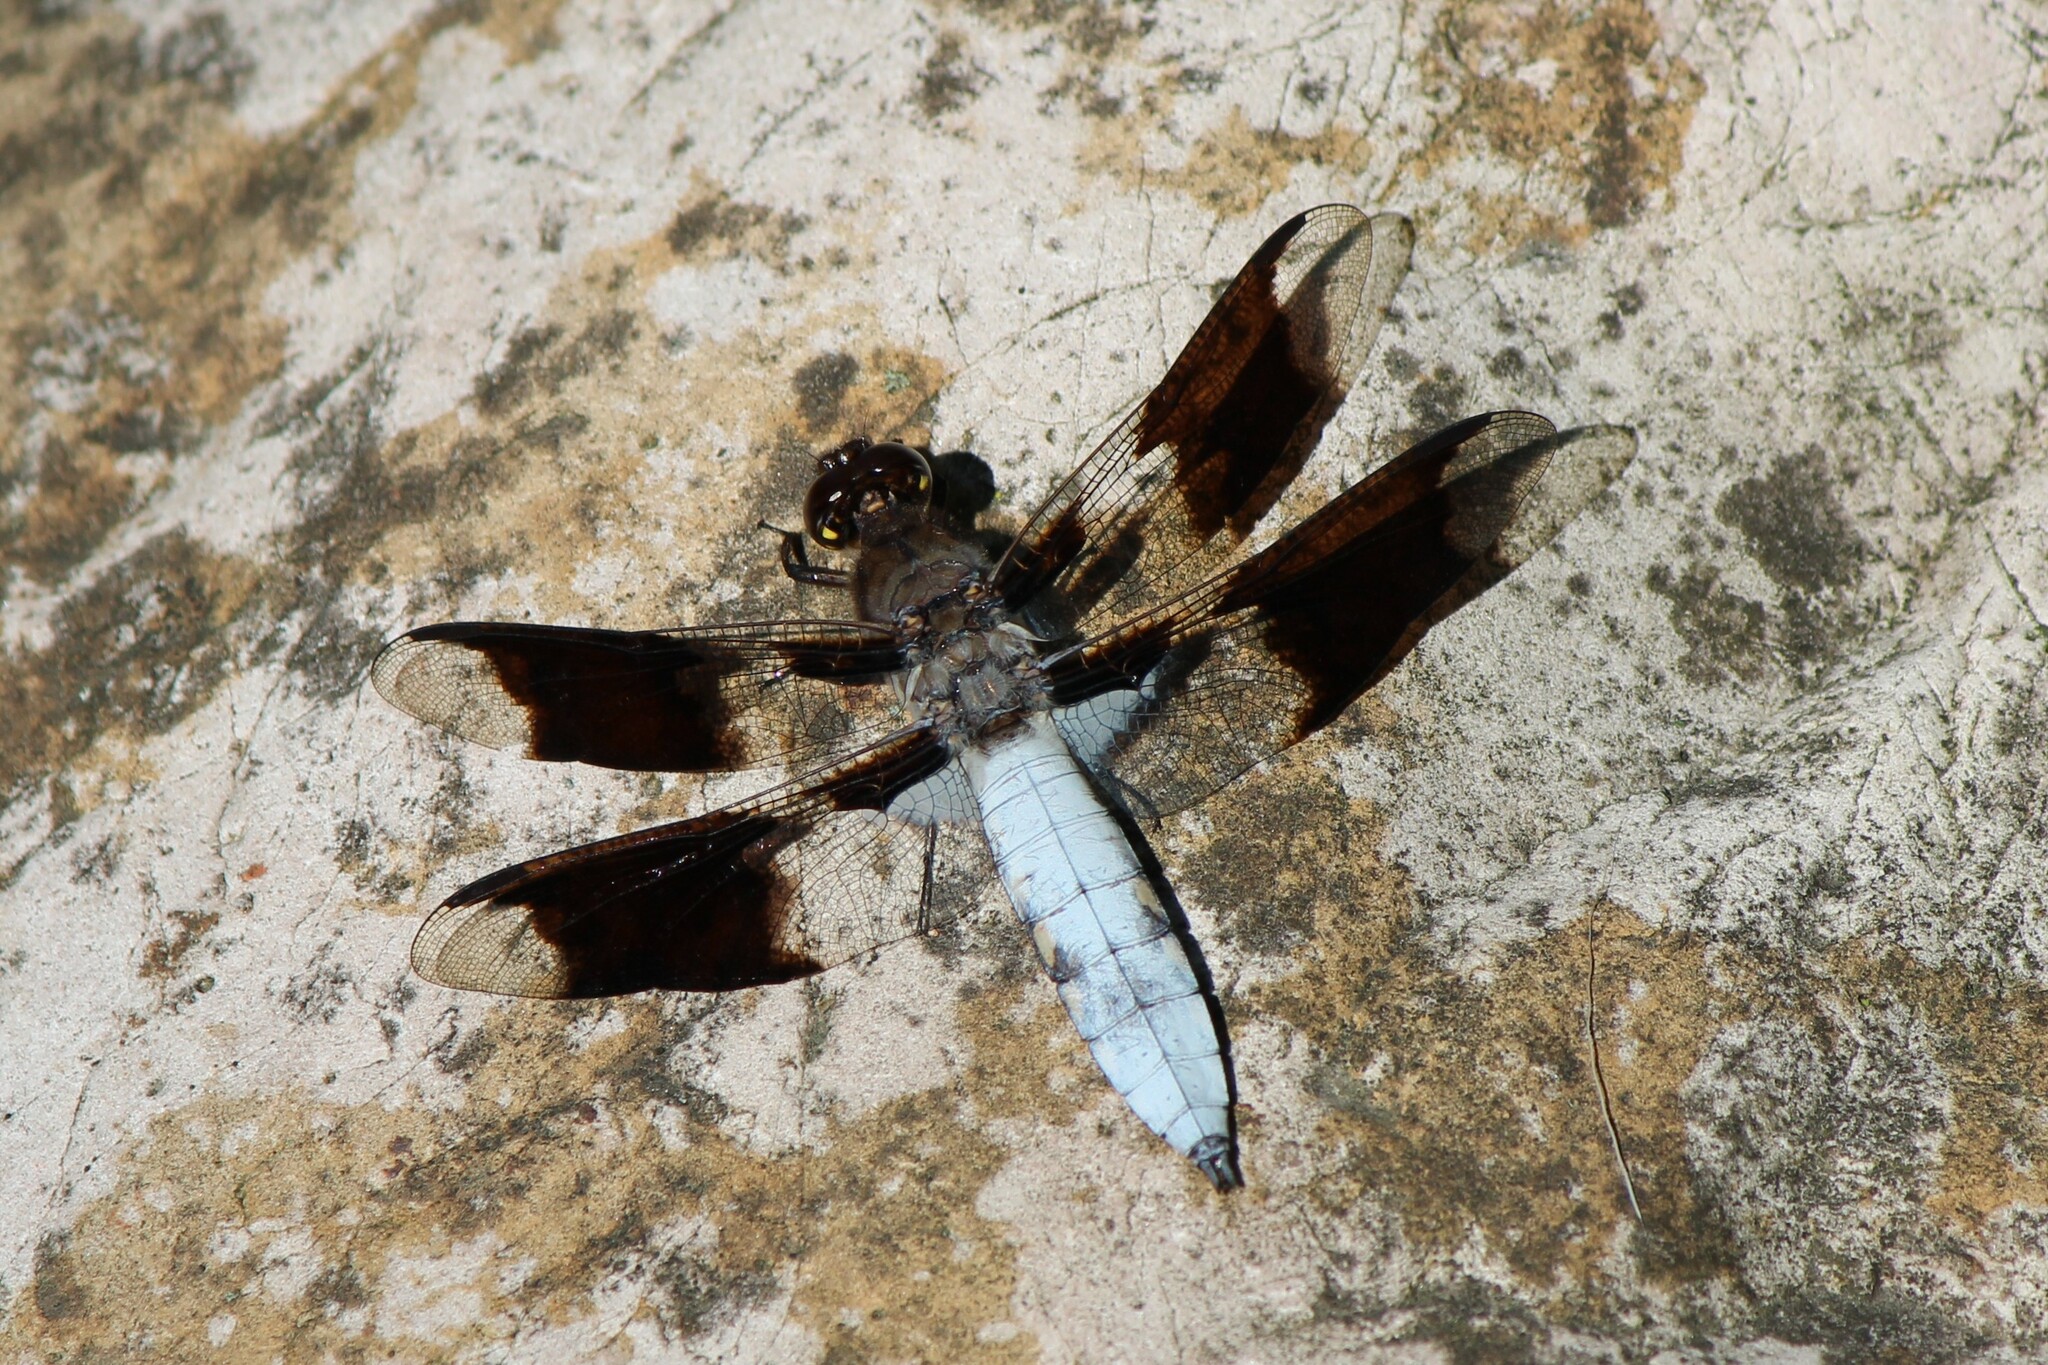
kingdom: Animalia
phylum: Arthropoda
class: Insecta
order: Odonata
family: Libellulidae
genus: Plathemis
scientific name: Plathemis lydia
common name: Common whitetail
